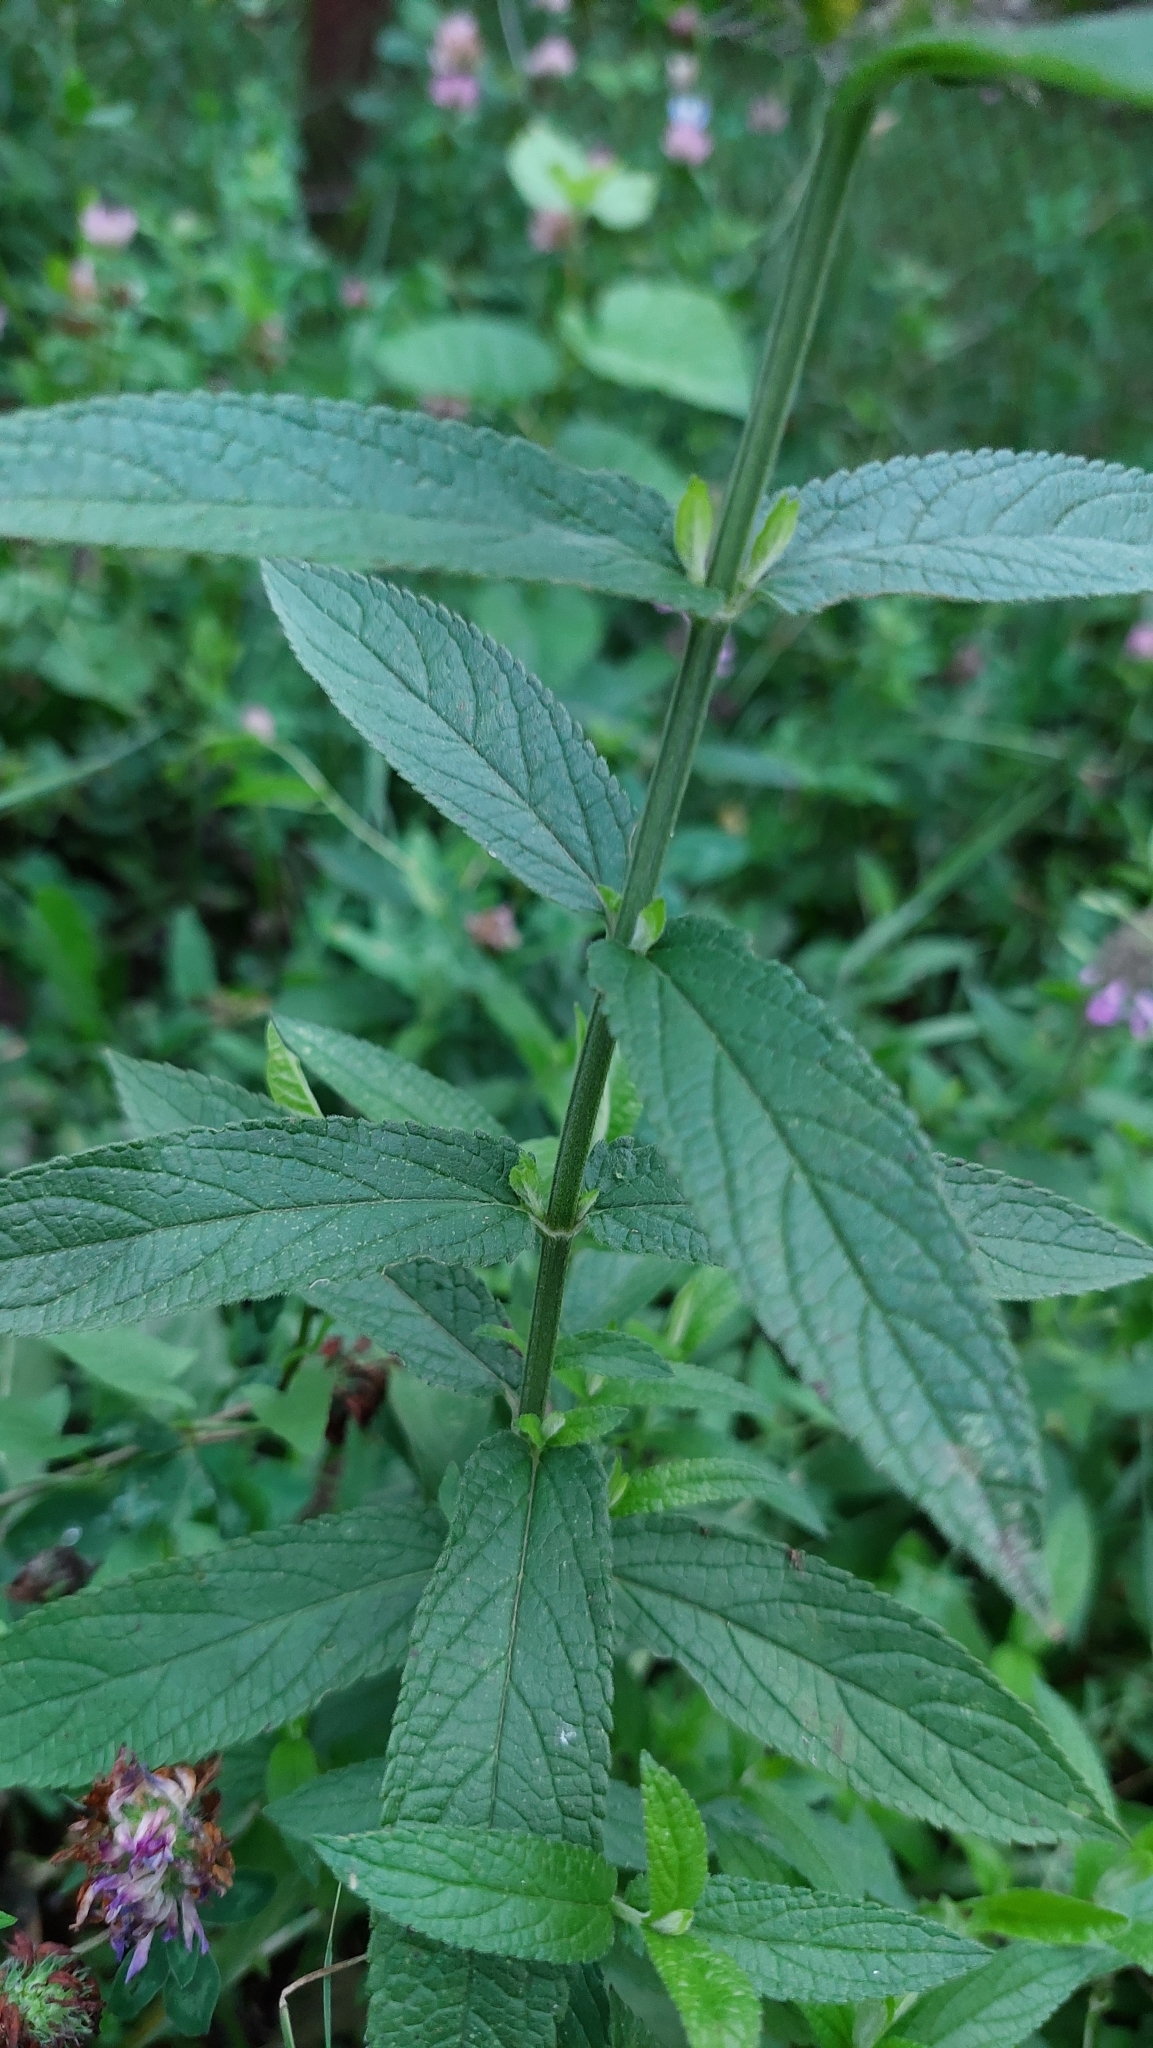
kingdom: Plantae
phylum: Tracheophyta
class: Magnoliopsida
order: Lamiales
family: Lamiaceae
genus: Stachys
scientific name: Stachys palustris
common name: Marsh woundwort
